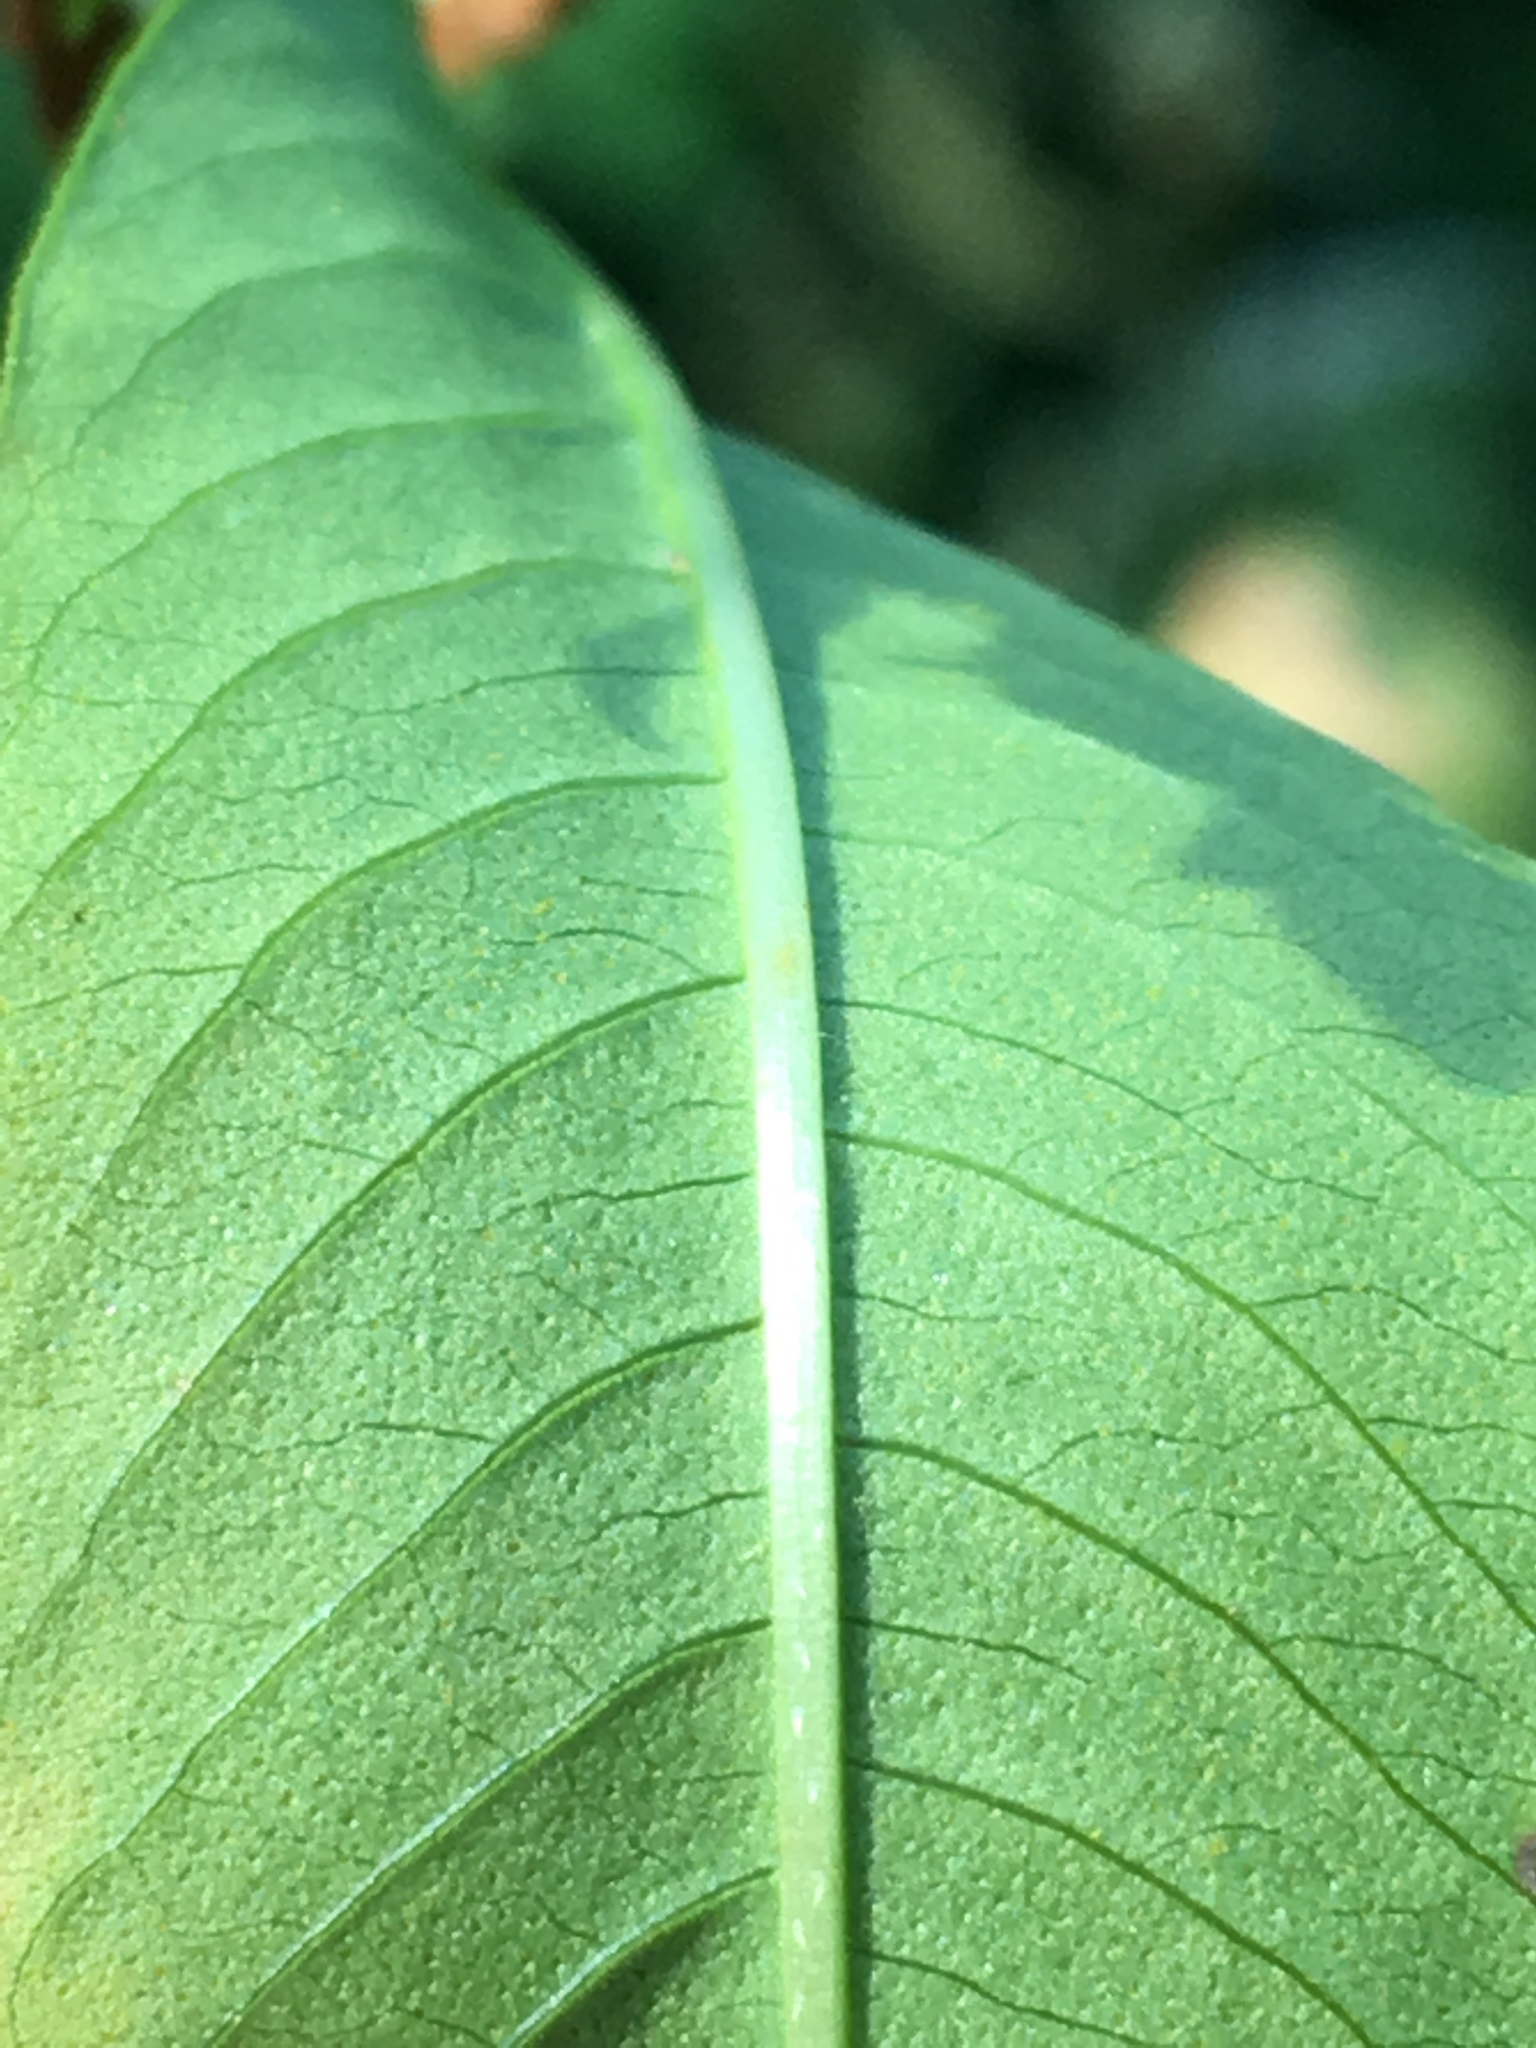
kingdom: Plantae
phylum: Tracheophyta
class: Magnoliopsida
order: Caryophyllales
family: Polygonaceae
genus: Persicaria
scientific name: Persicaria lapathifolia
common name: Curlytop knotweed
